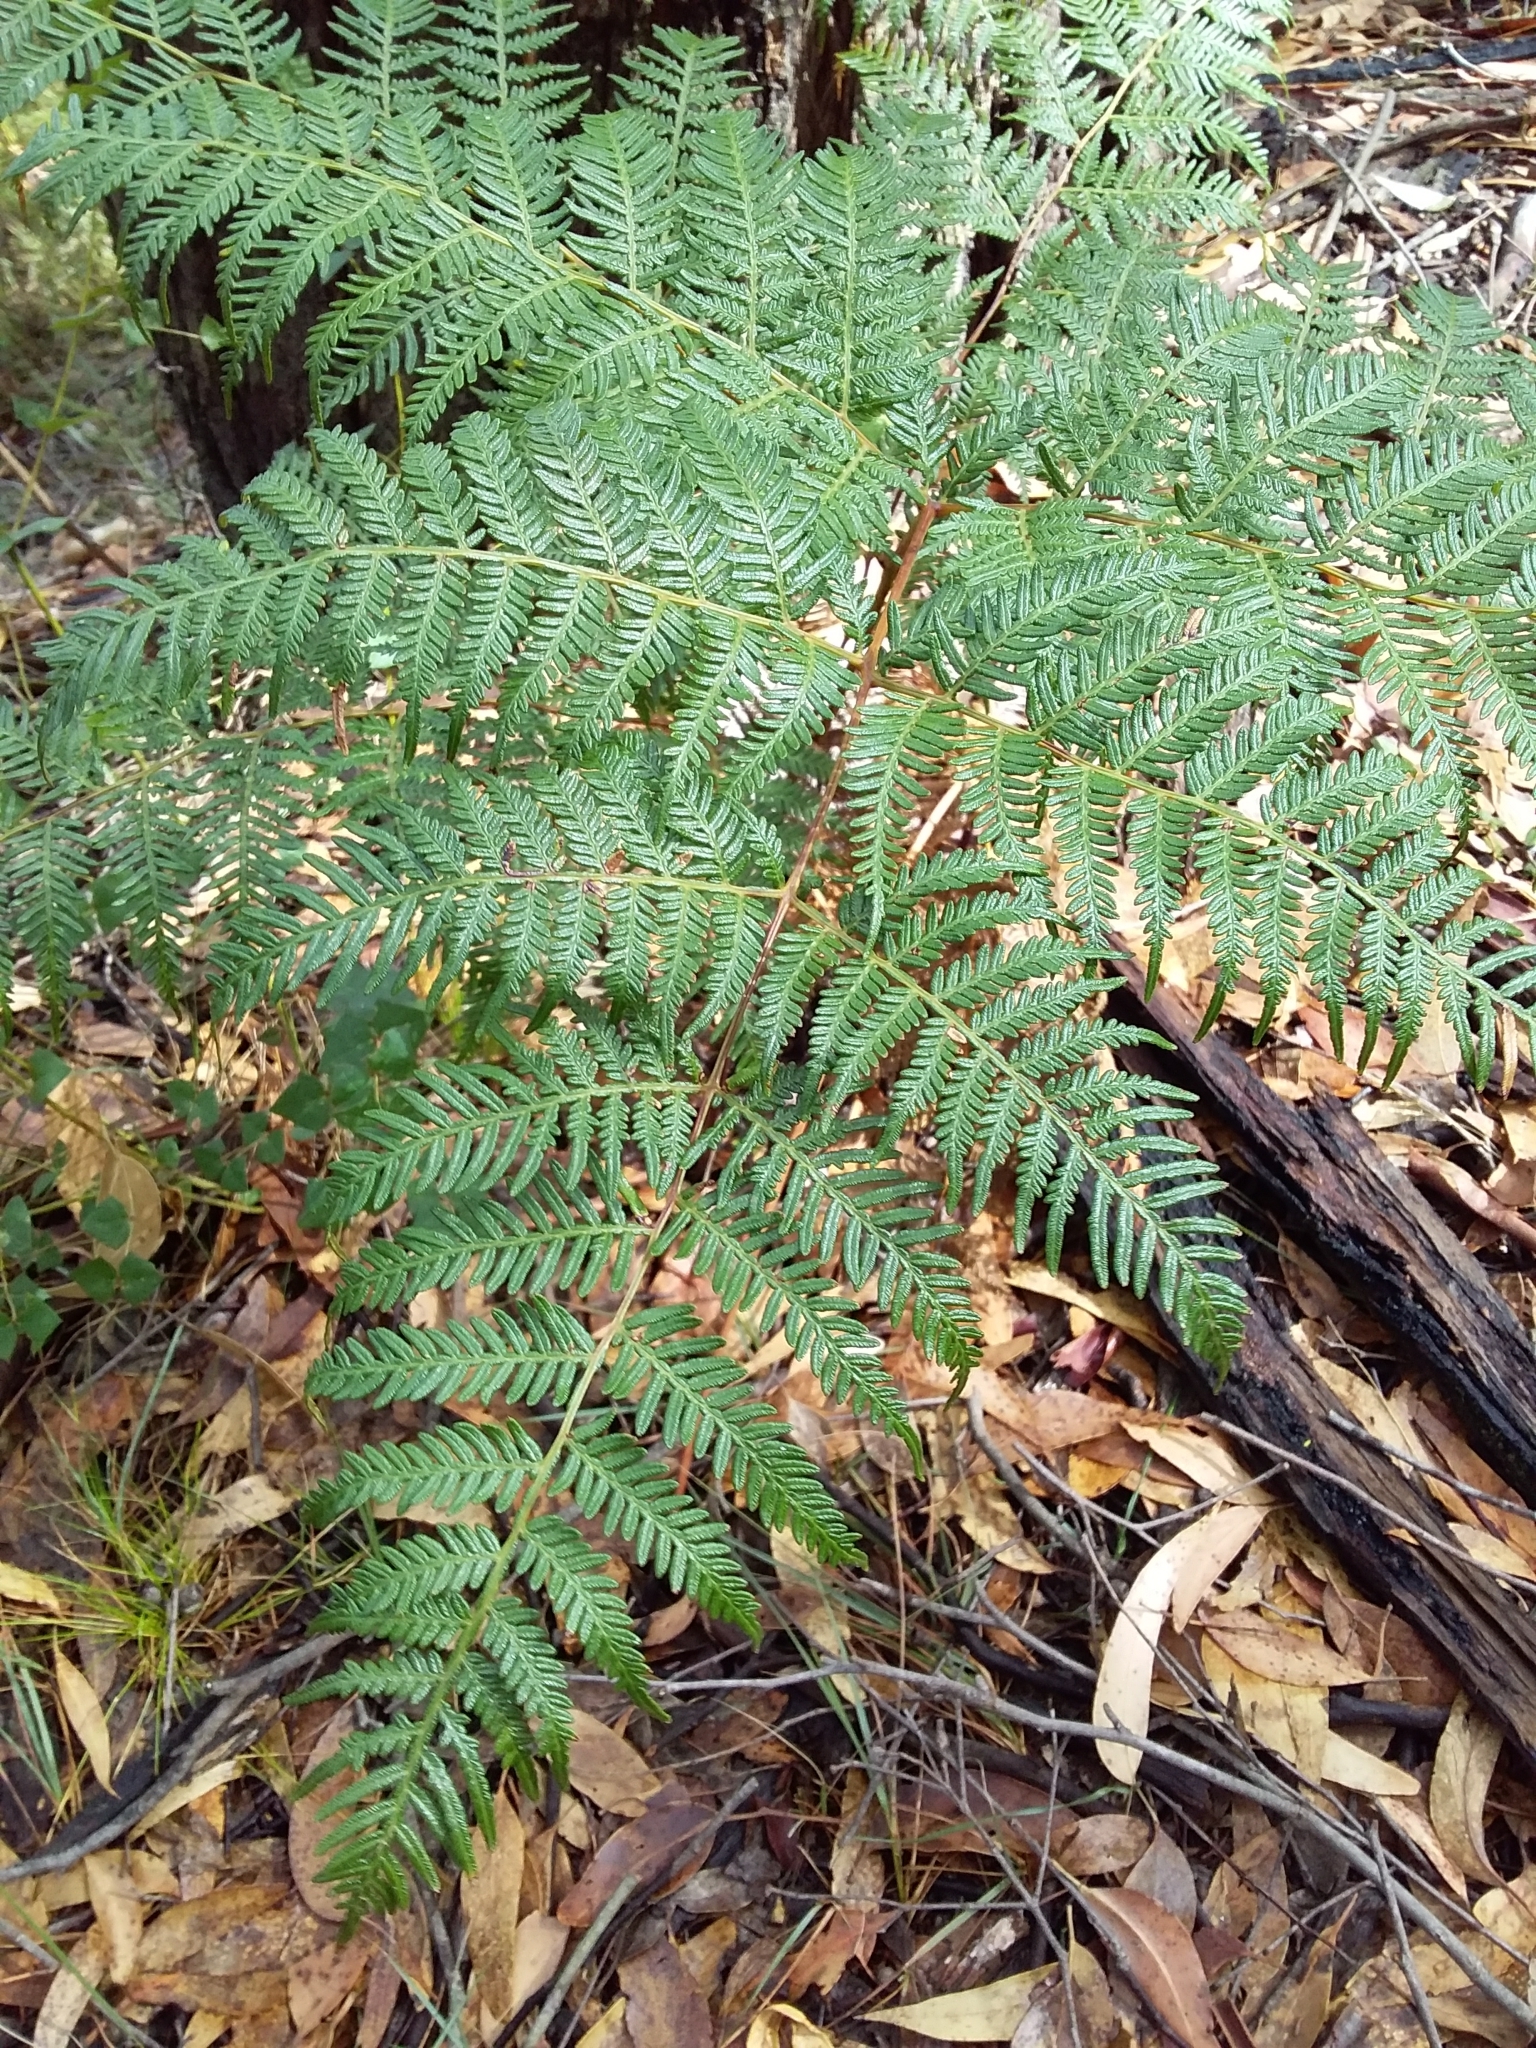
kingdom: Plantae
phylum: Tracheophyta
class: Polypodiopsida
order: Polypodiales
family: Dennstaedtiaceae
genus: Pteridium
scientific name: Pteridium esculentum
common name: Bracken fern
